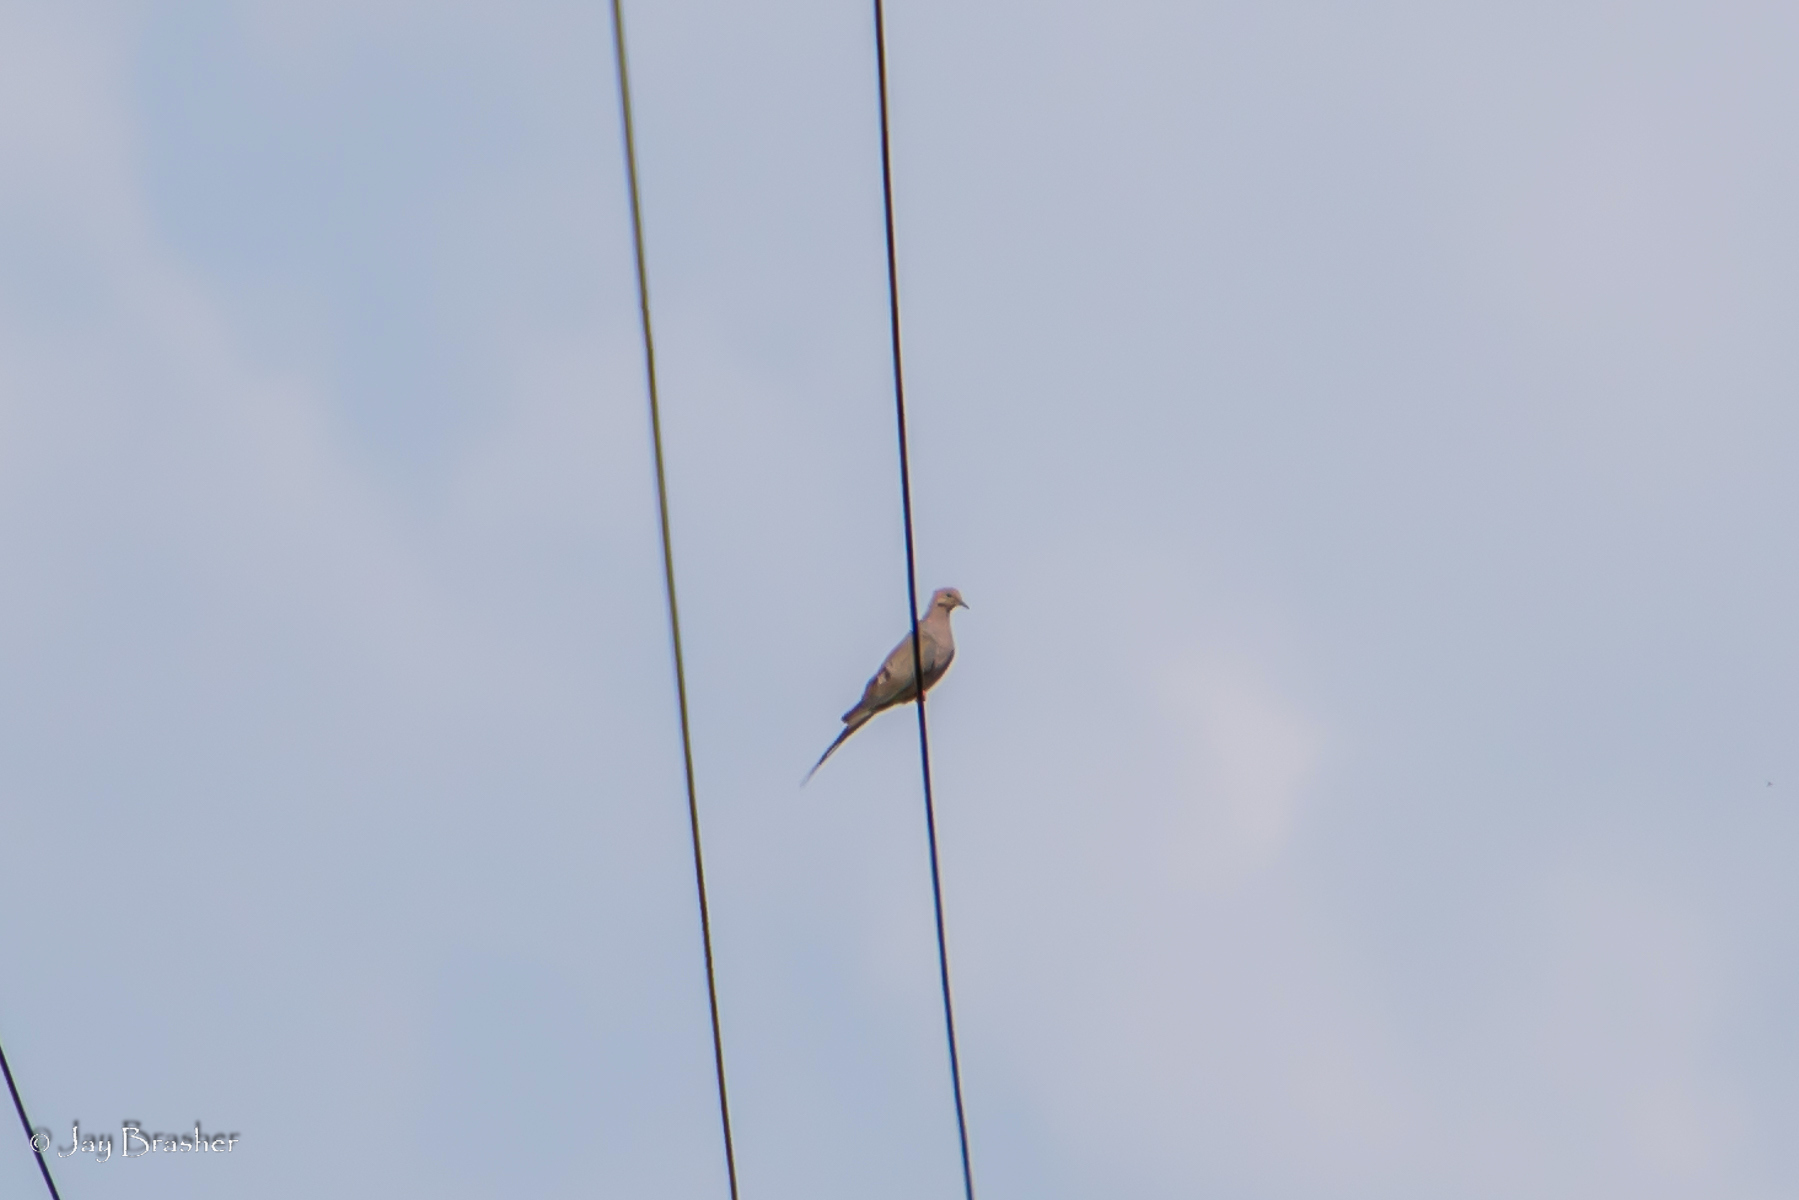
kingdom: Animalia
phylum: Chordata
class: Aves
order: Columbiformes
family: Columbidae
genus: Zenaida
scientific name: Zenaida macroura
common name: Mourning dove
